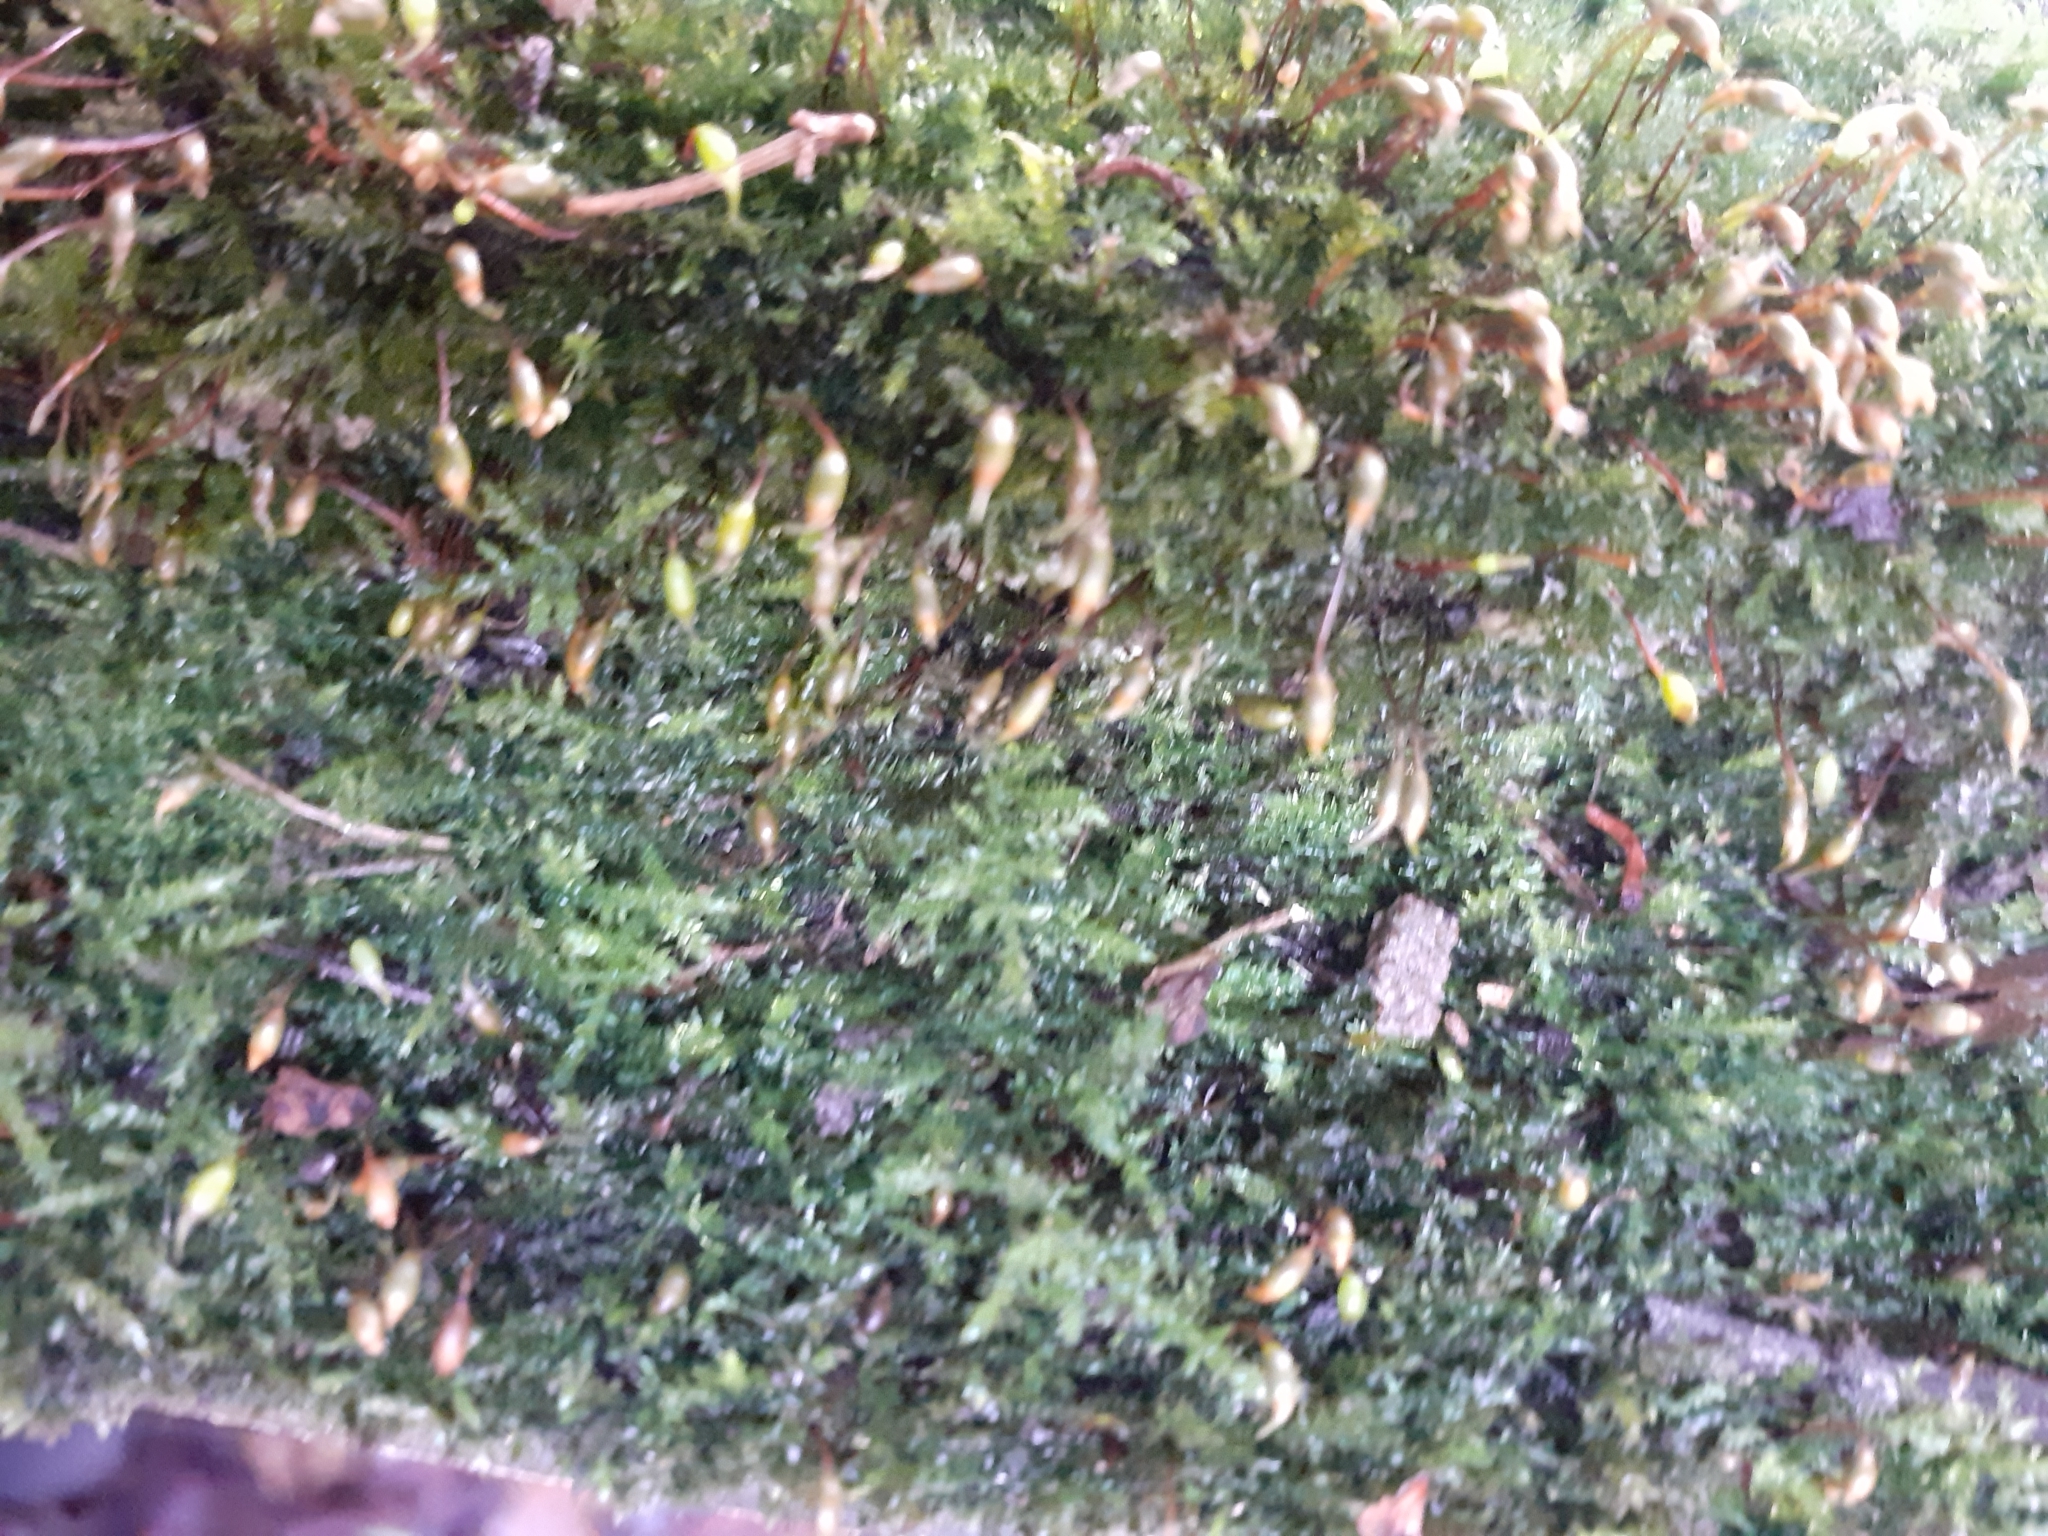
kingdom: Plantae
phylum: Bryophyta
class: Bryopsida
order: Hypnales
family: Brachytheciaceae
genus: Rhynchostegium
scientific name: Rhynchostegium confertum
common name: Clustered feather-moss
